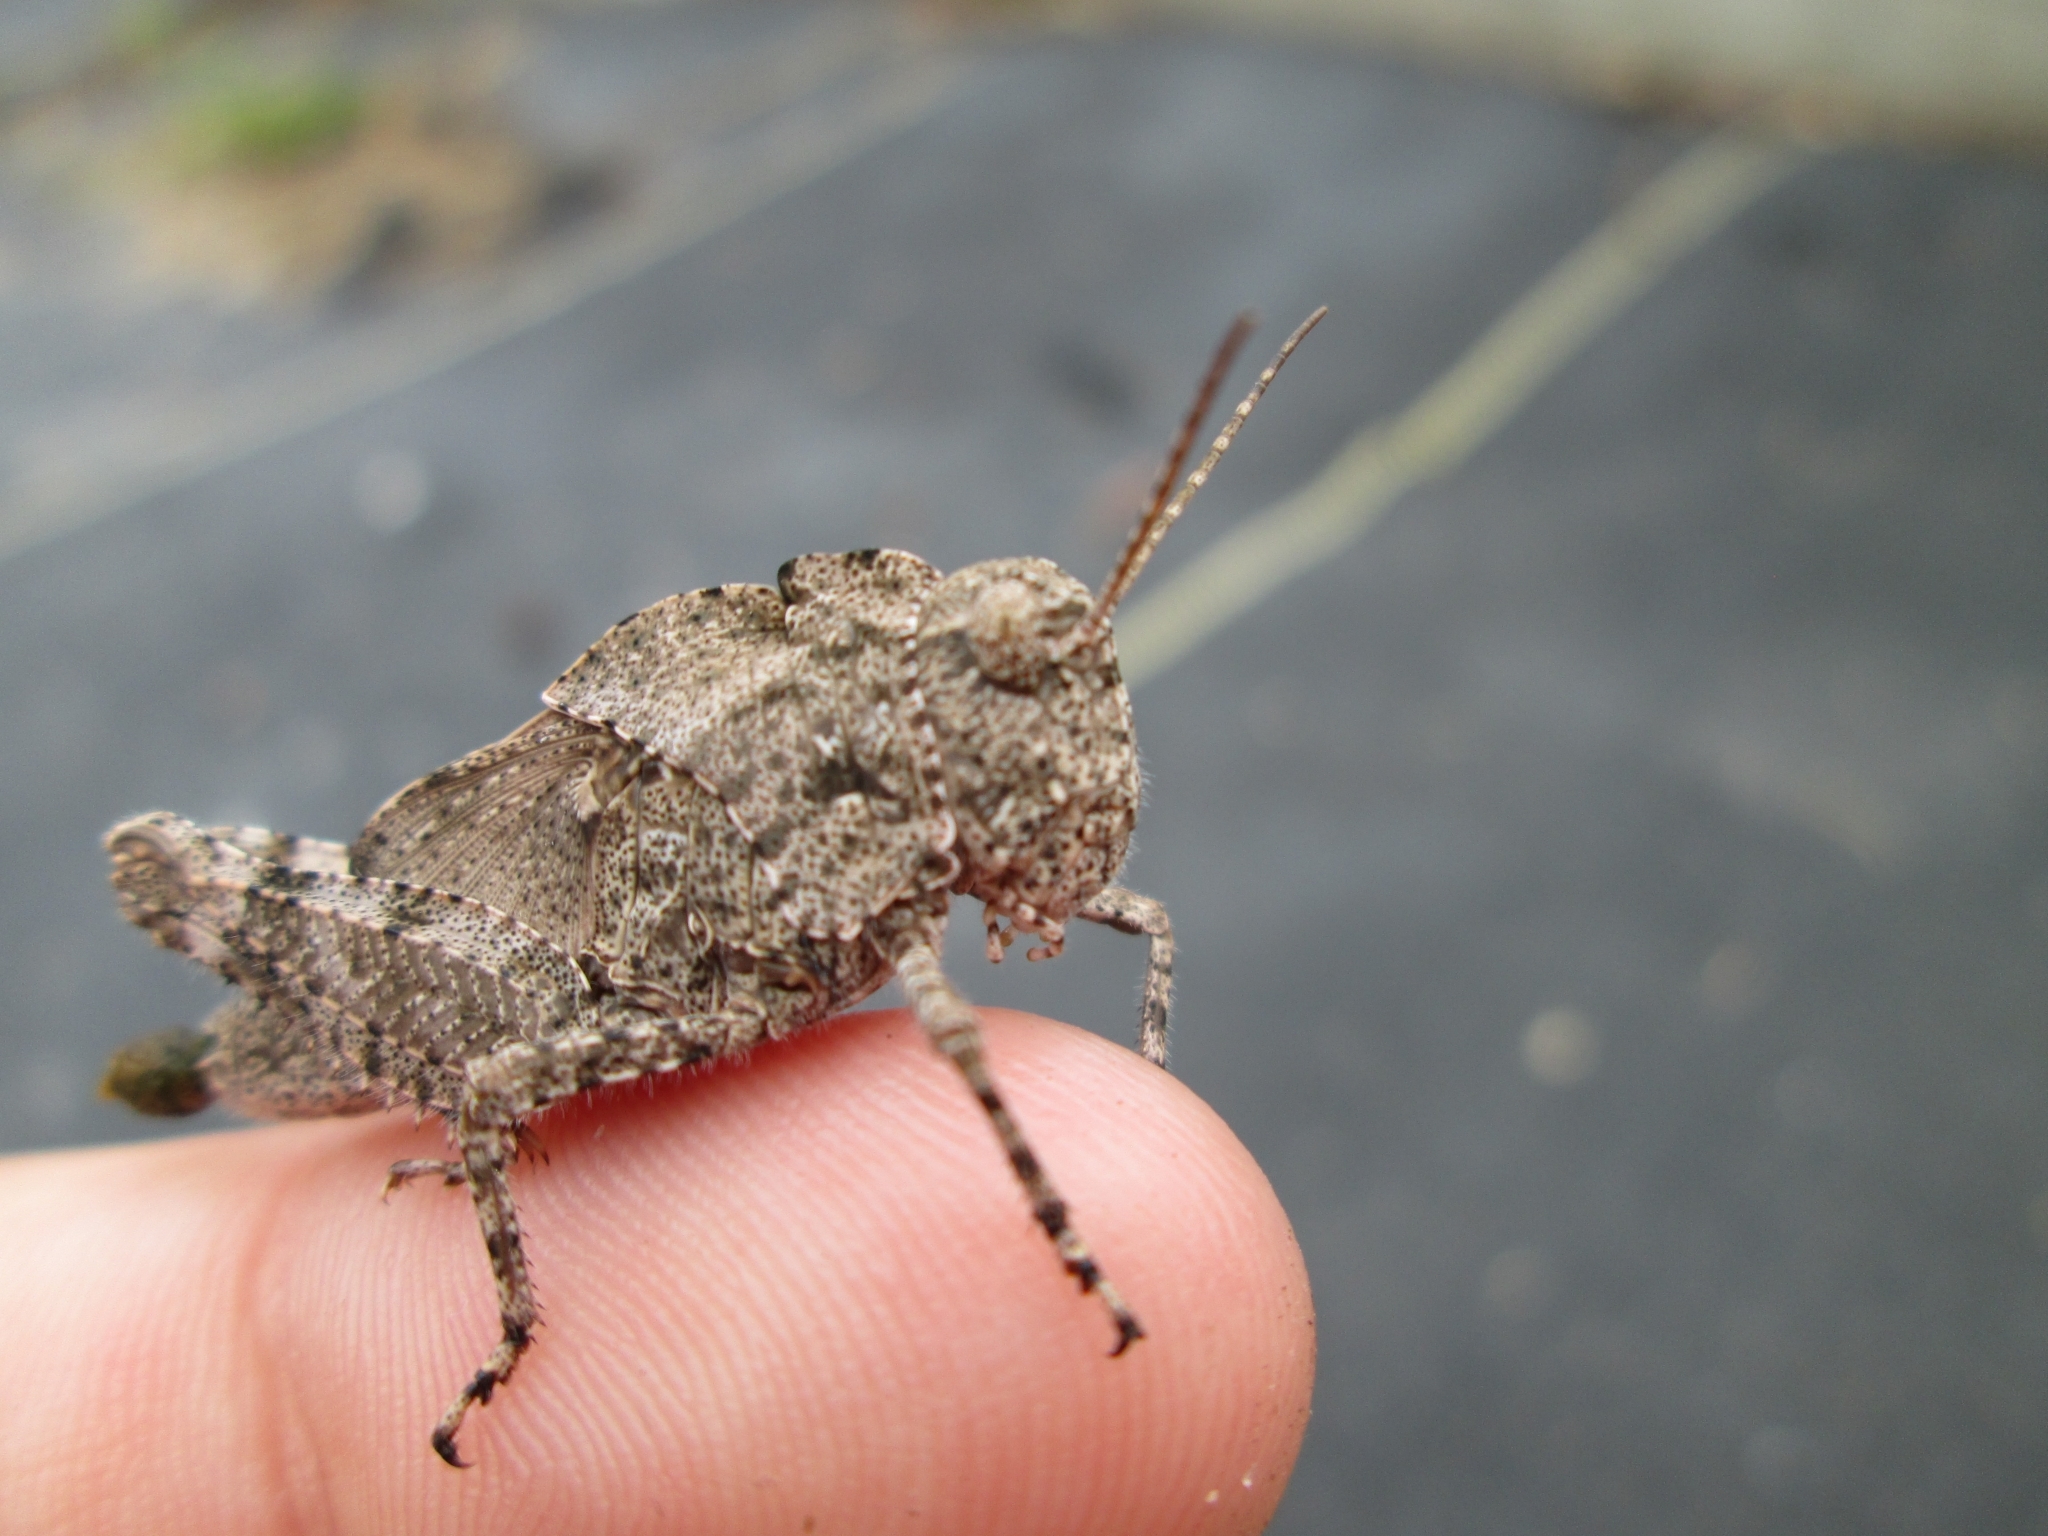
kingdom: Animalia
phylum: Arthropoda
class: Insecta
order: Orthoptera
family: Acrididae
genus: Dissosteira
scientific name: Dissosteira carolina
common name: Carolina grasshopper
